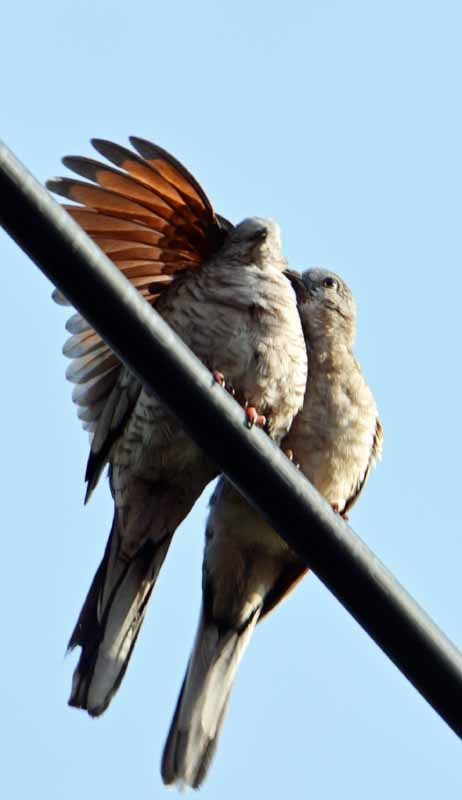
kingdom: Animalia
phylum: Chordata
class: Aves
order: Columbiformes
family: Columbidae
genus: Columbina
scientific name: Columbina inca
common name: Inca dove
